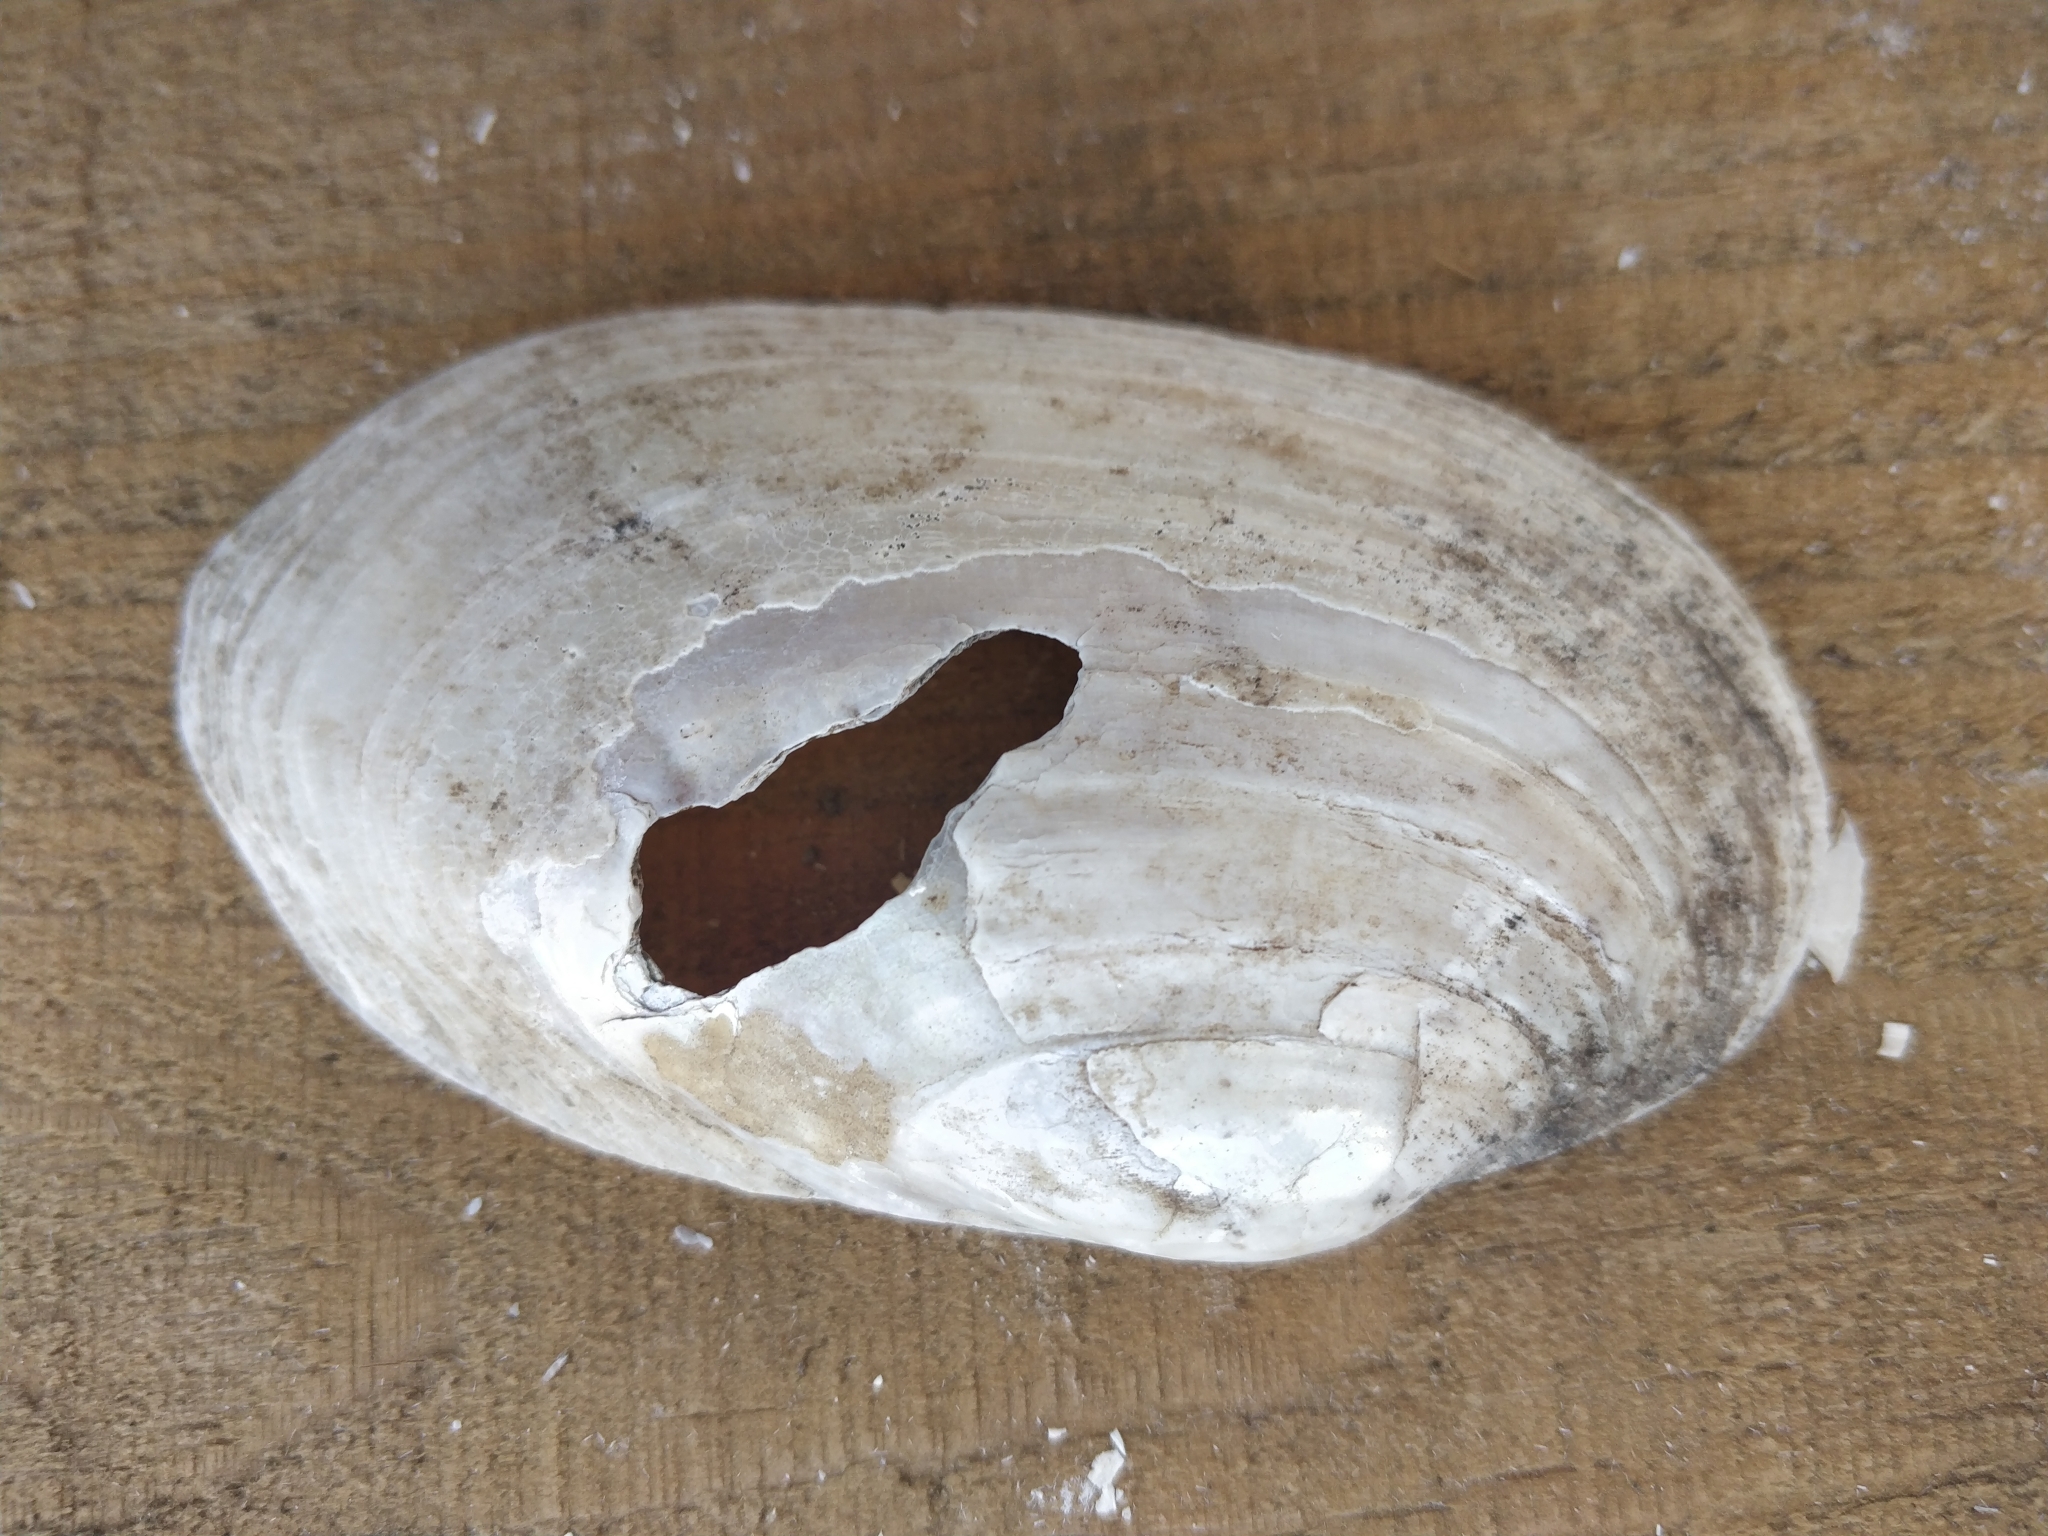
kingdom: Animalia
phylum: Mollusca
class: Bivalvia
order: Unionida
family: Unionidae
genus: Lampsilis
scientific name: Lampsilis siliquoidea
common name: Fatmucket
